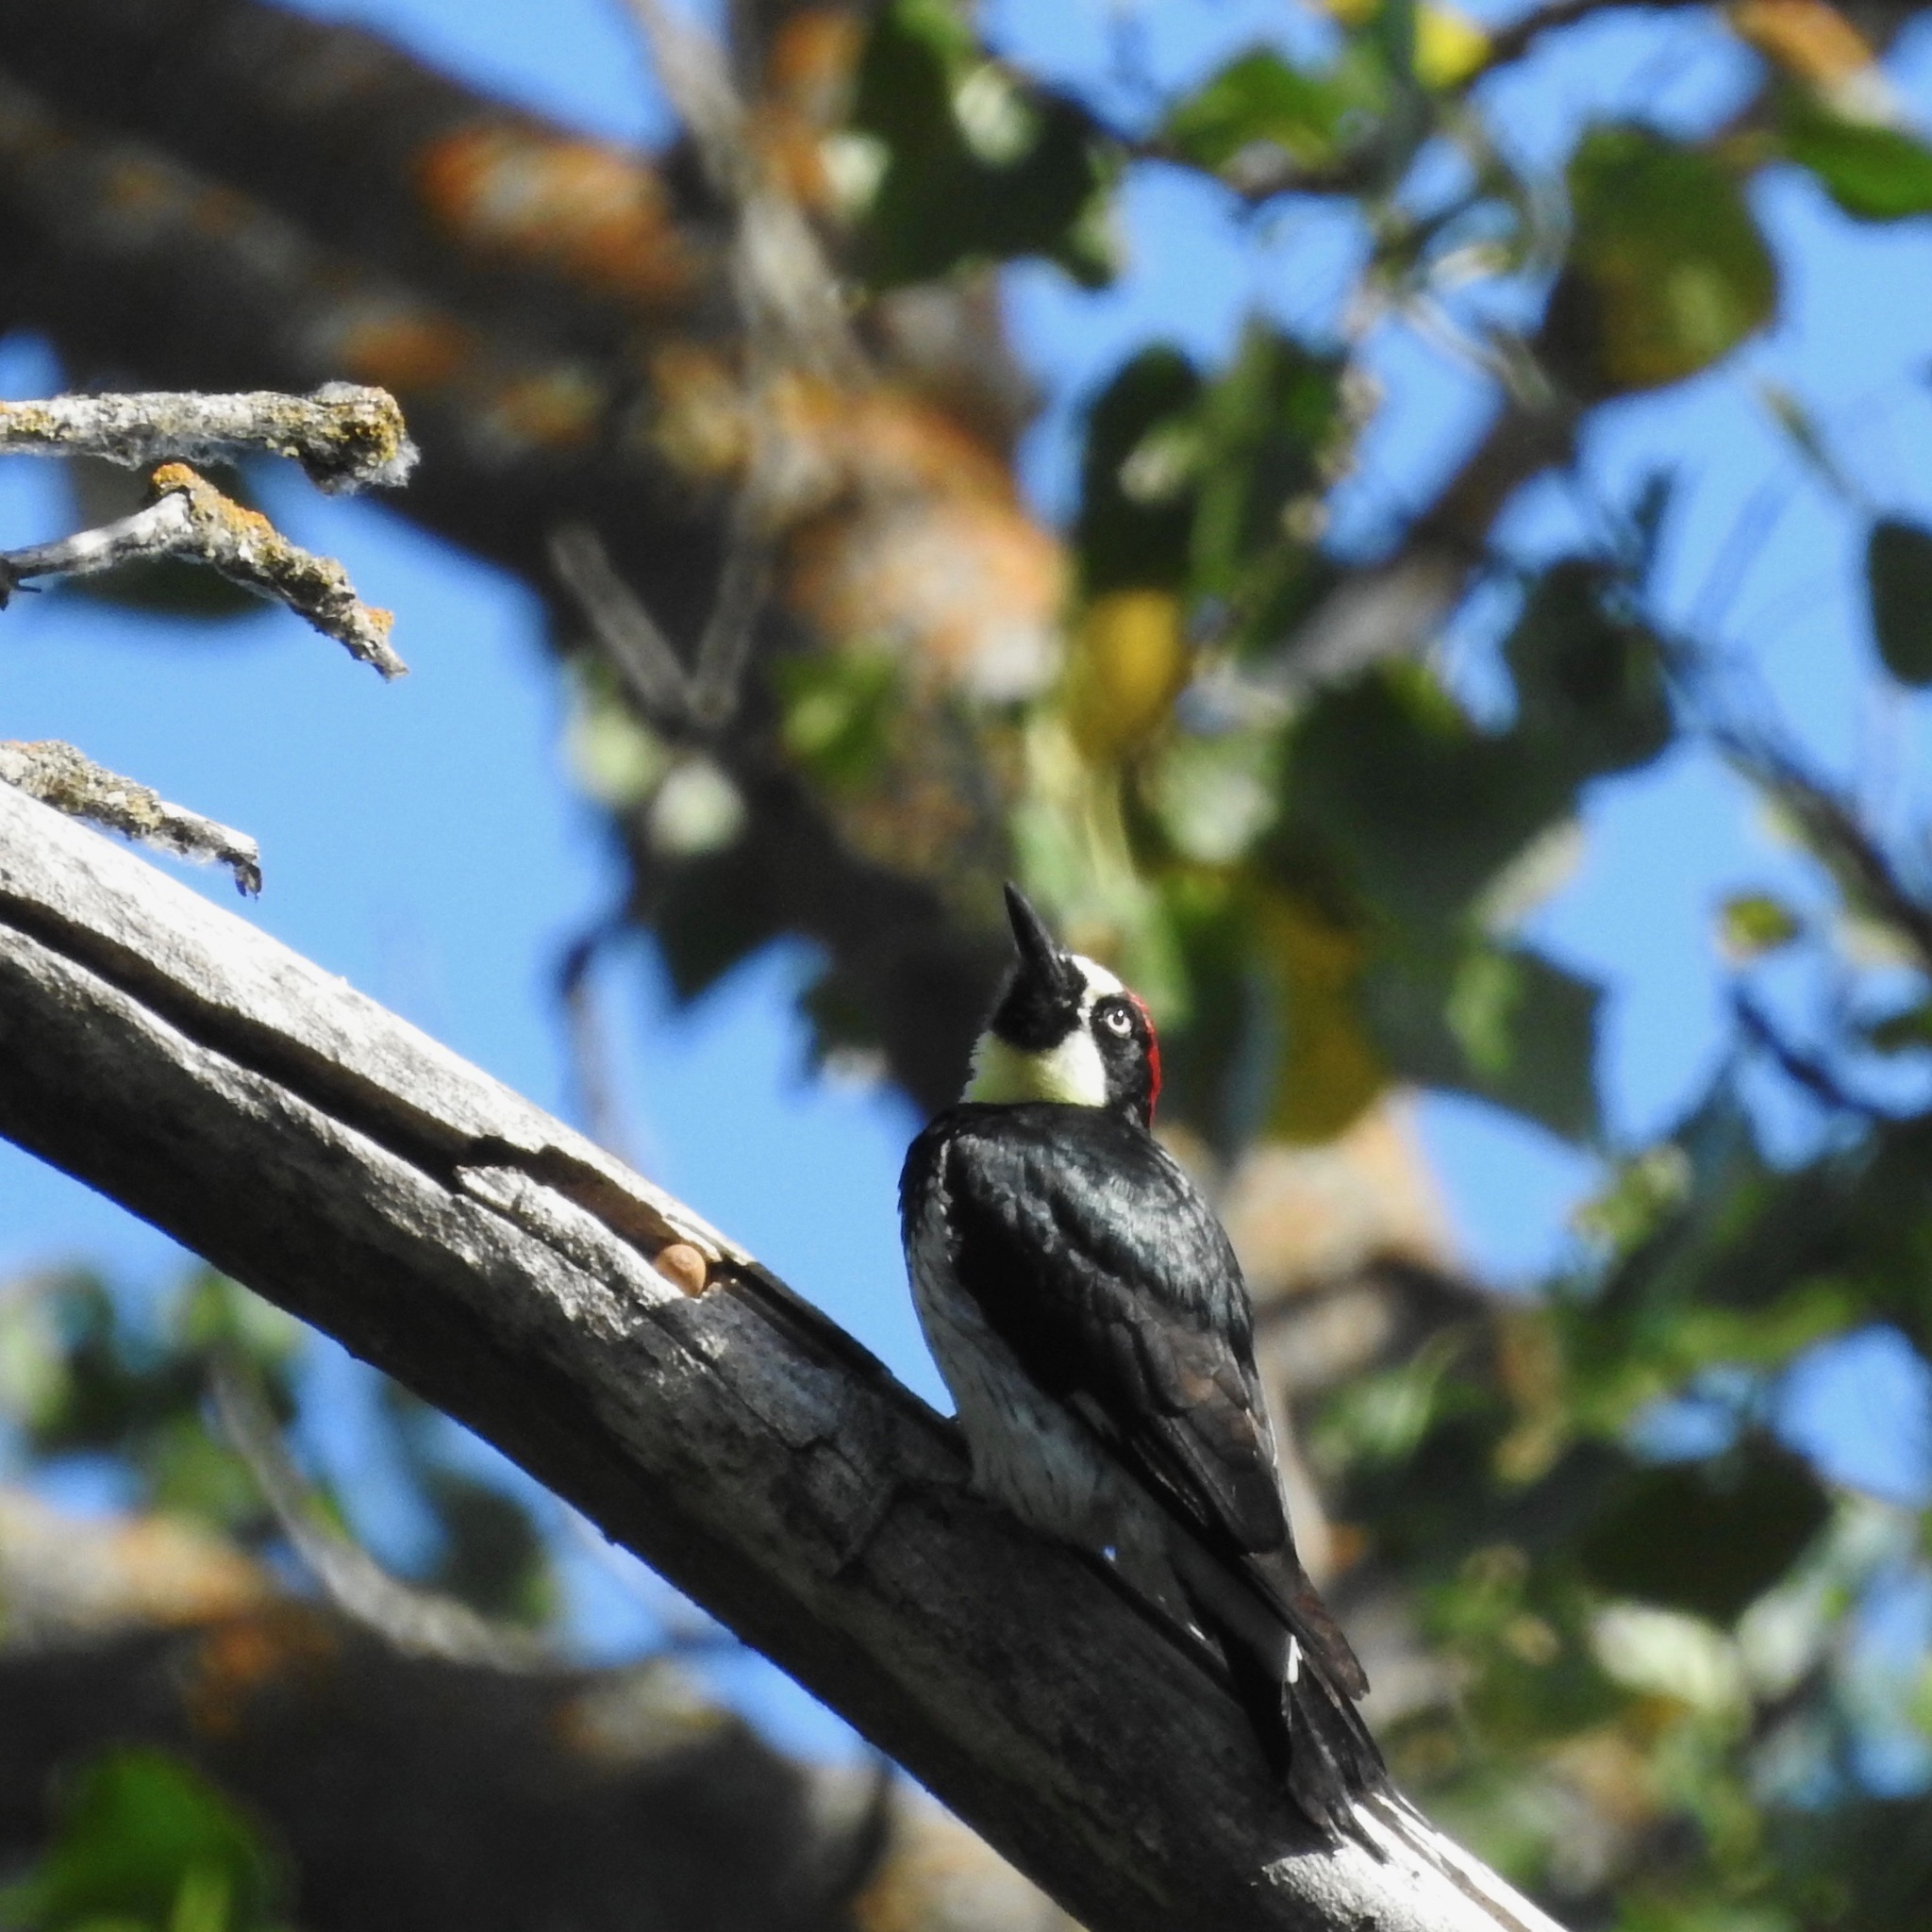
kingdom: Animalia
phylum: Chordata
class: Aves
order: Piciformes
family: Picidae
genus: Melanerpes
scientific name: Melanerpes formicivorus
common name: Acorn woodpecker
